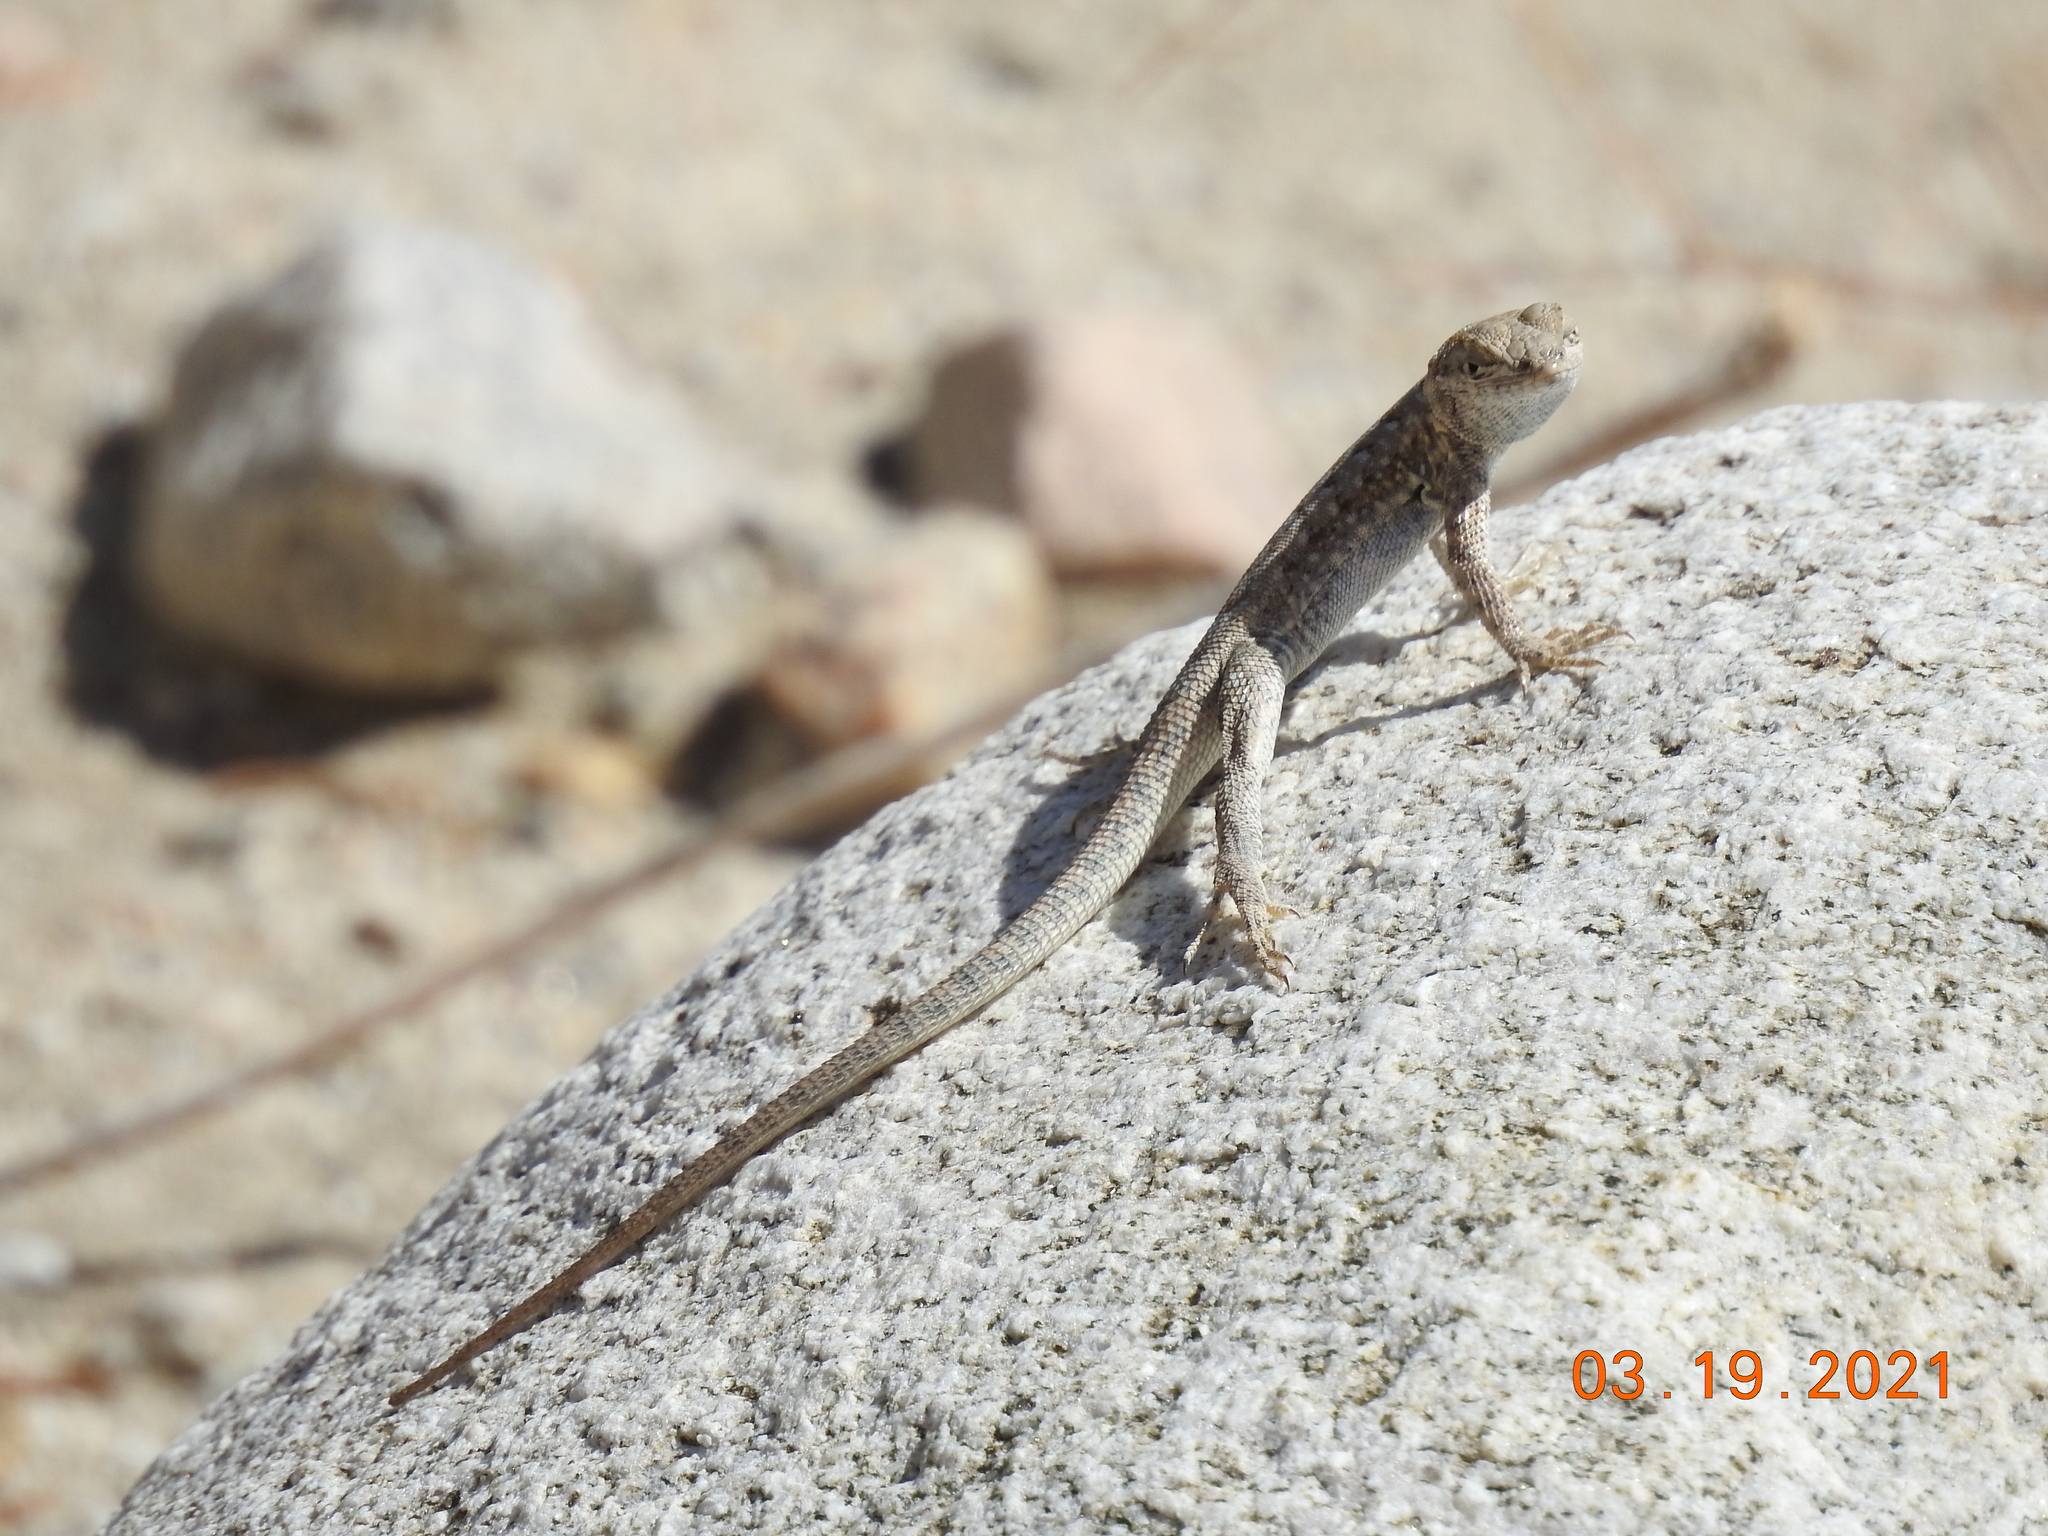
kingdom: Animalia
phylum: Chordata
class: Squamata
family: Phrynosomatidae
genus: Uta
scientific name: Uta stansburiana
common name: Side-blotched lizard
